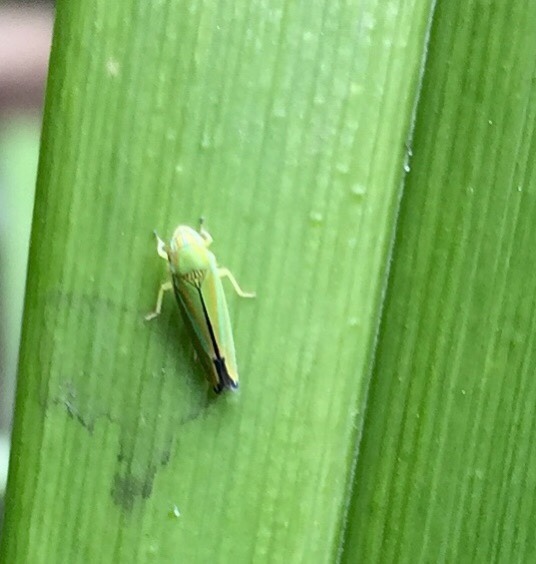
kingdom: Animalia
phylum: Arthropoda
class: Insecta
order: Hemiptera
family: Cicadellidae
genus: Graphocephala
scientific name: Graphocephala versuta
